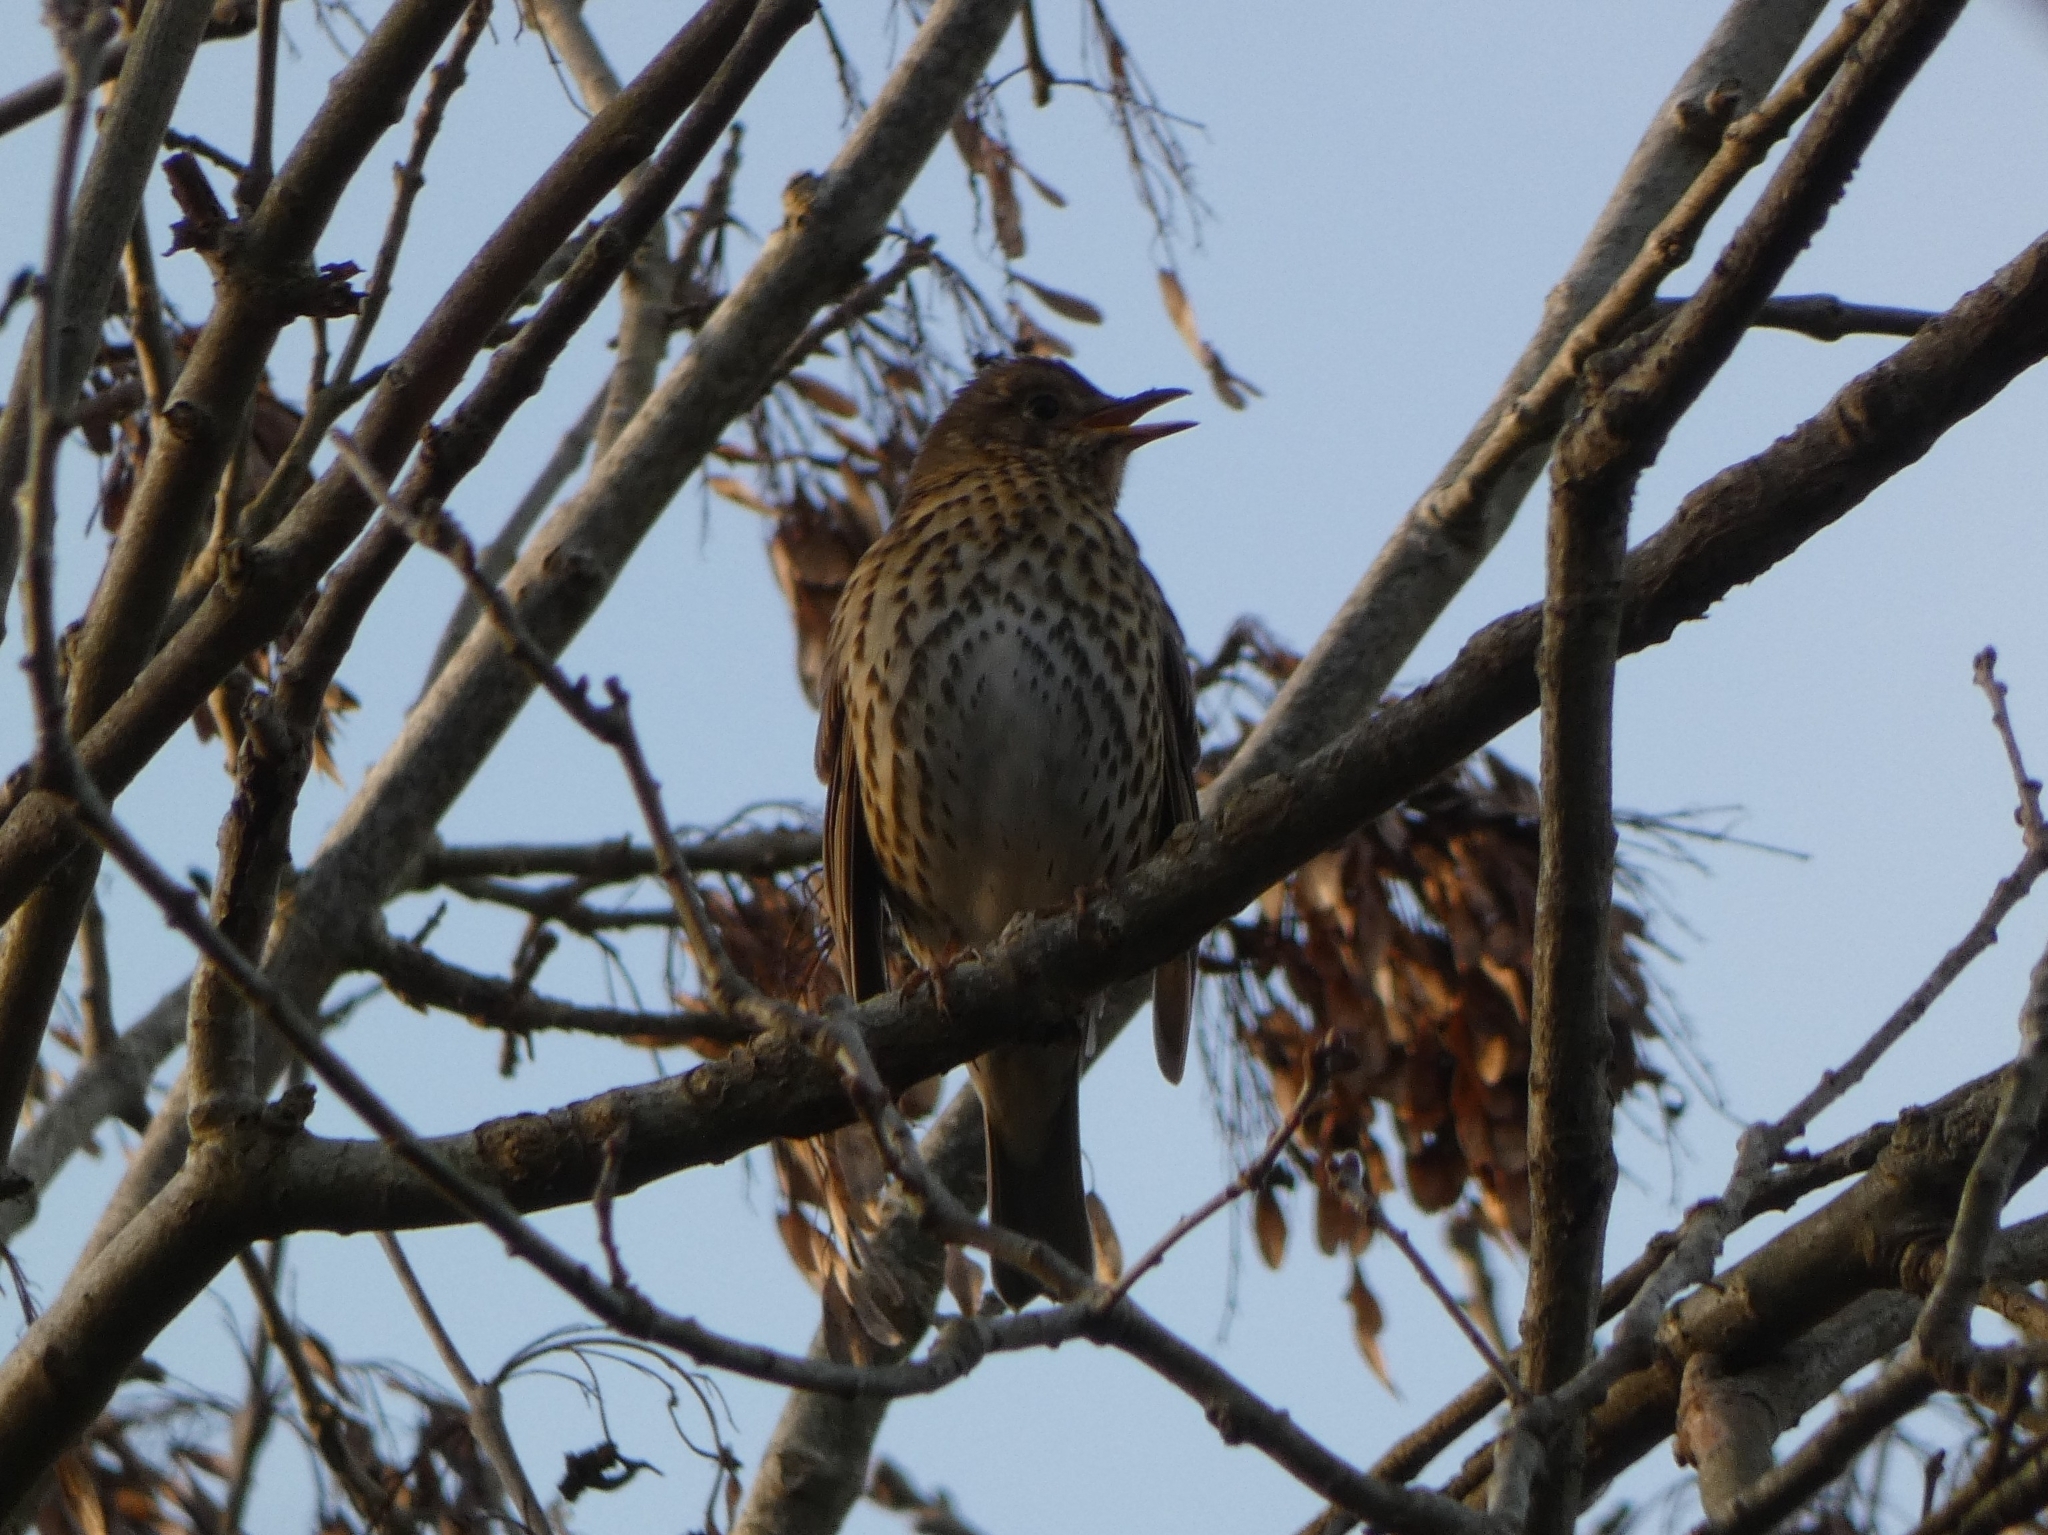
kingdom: Animalia
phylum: Chordata
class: Aves
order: Passeriformes
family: Turdidae
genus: Turdus
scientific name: Turdus philomelos
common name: Song thrush
